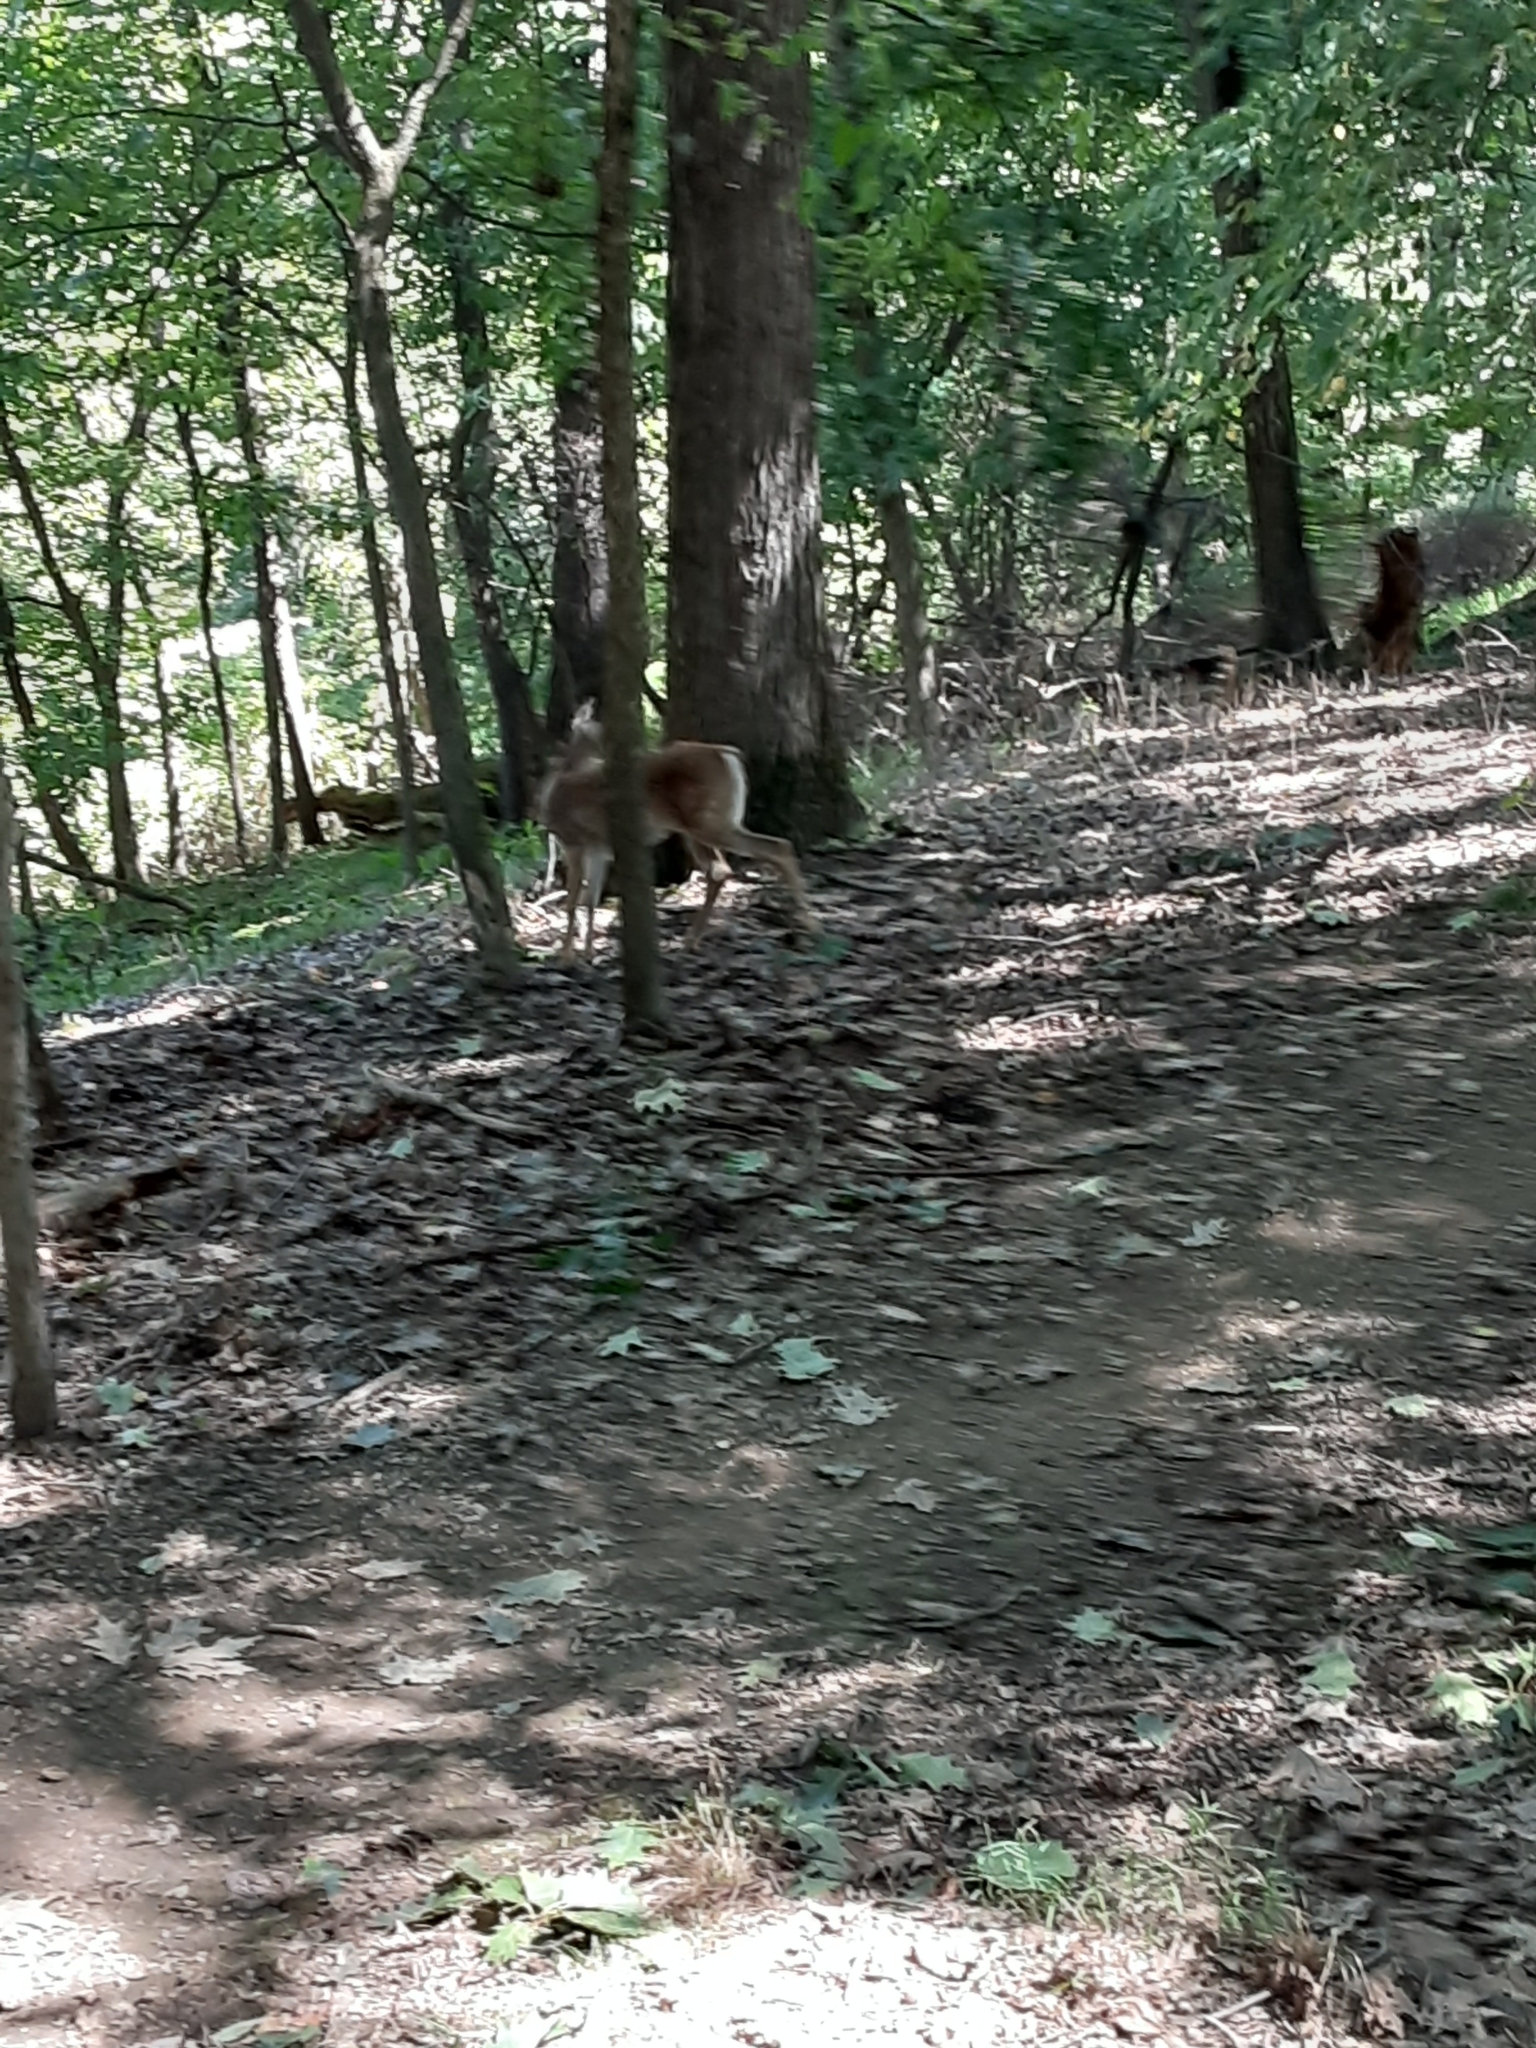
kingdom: Animalia
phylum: Chordata
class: Mammalia
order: Artiodactyla
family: Cervidae
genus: Odocoileus
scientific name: Odocoileus virginianus
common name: White-tailed deer
